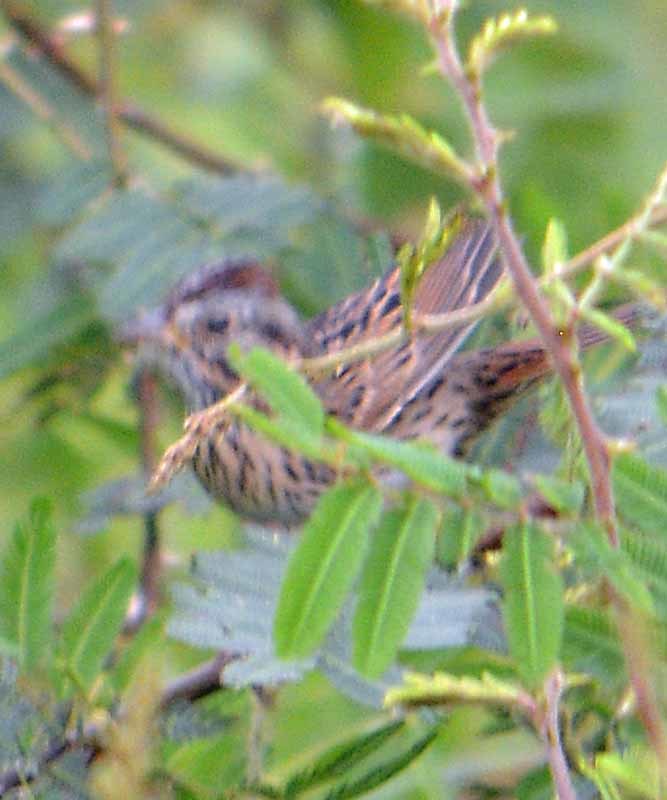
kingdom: Animalia
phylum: Chordata
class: Aves
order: Passeriformes
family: Passerellidae
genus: Melospiza
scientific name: Melospiza lincolnii
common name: Lincoln's sparrow
